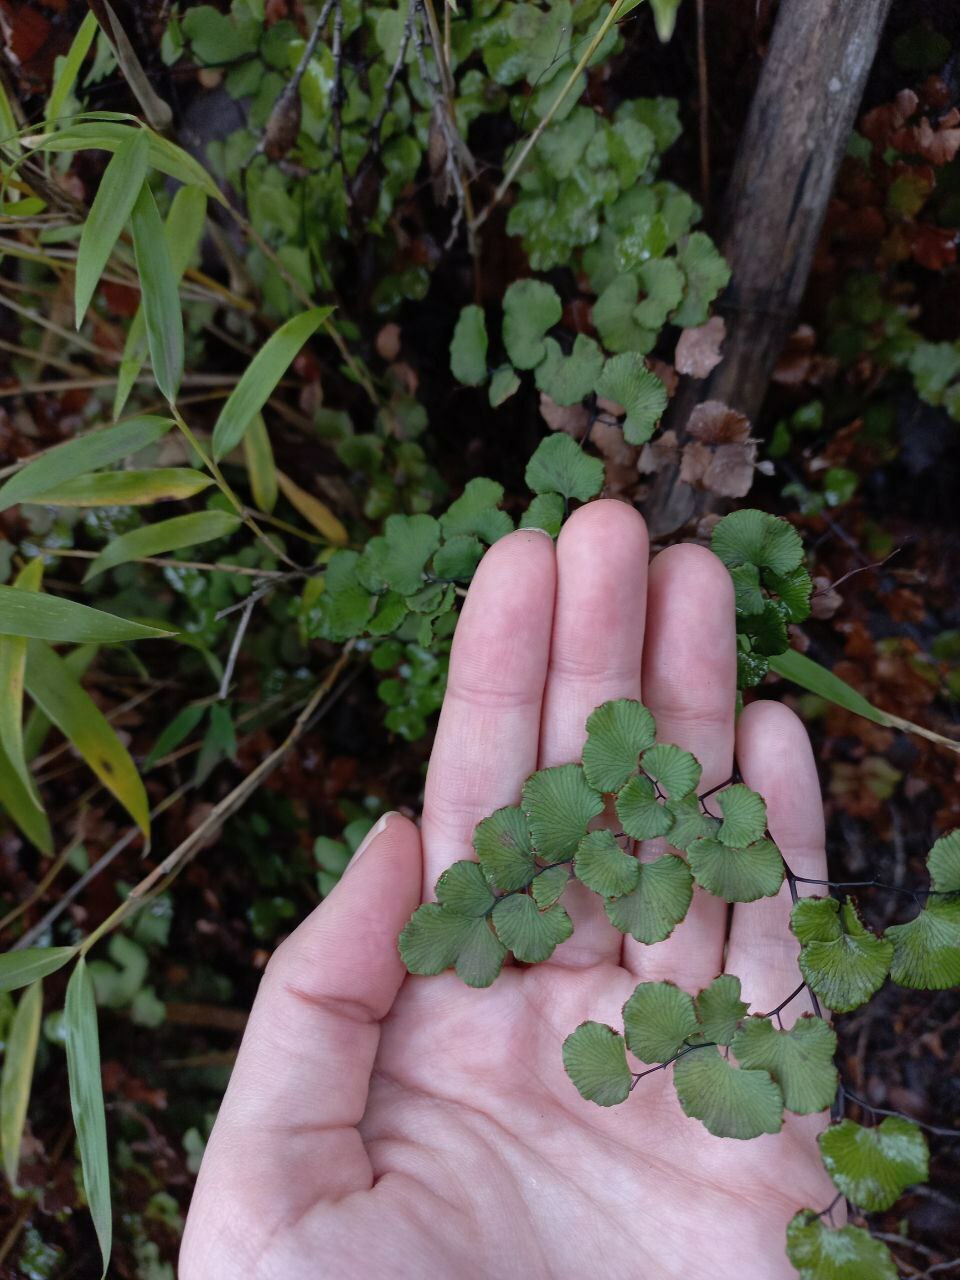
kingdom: Plantae
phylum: Tracheophyta
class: Polypodiopsida
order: Polypodiales
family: Pteridaceae
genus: Adiantum
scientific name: Adiantum chilense
